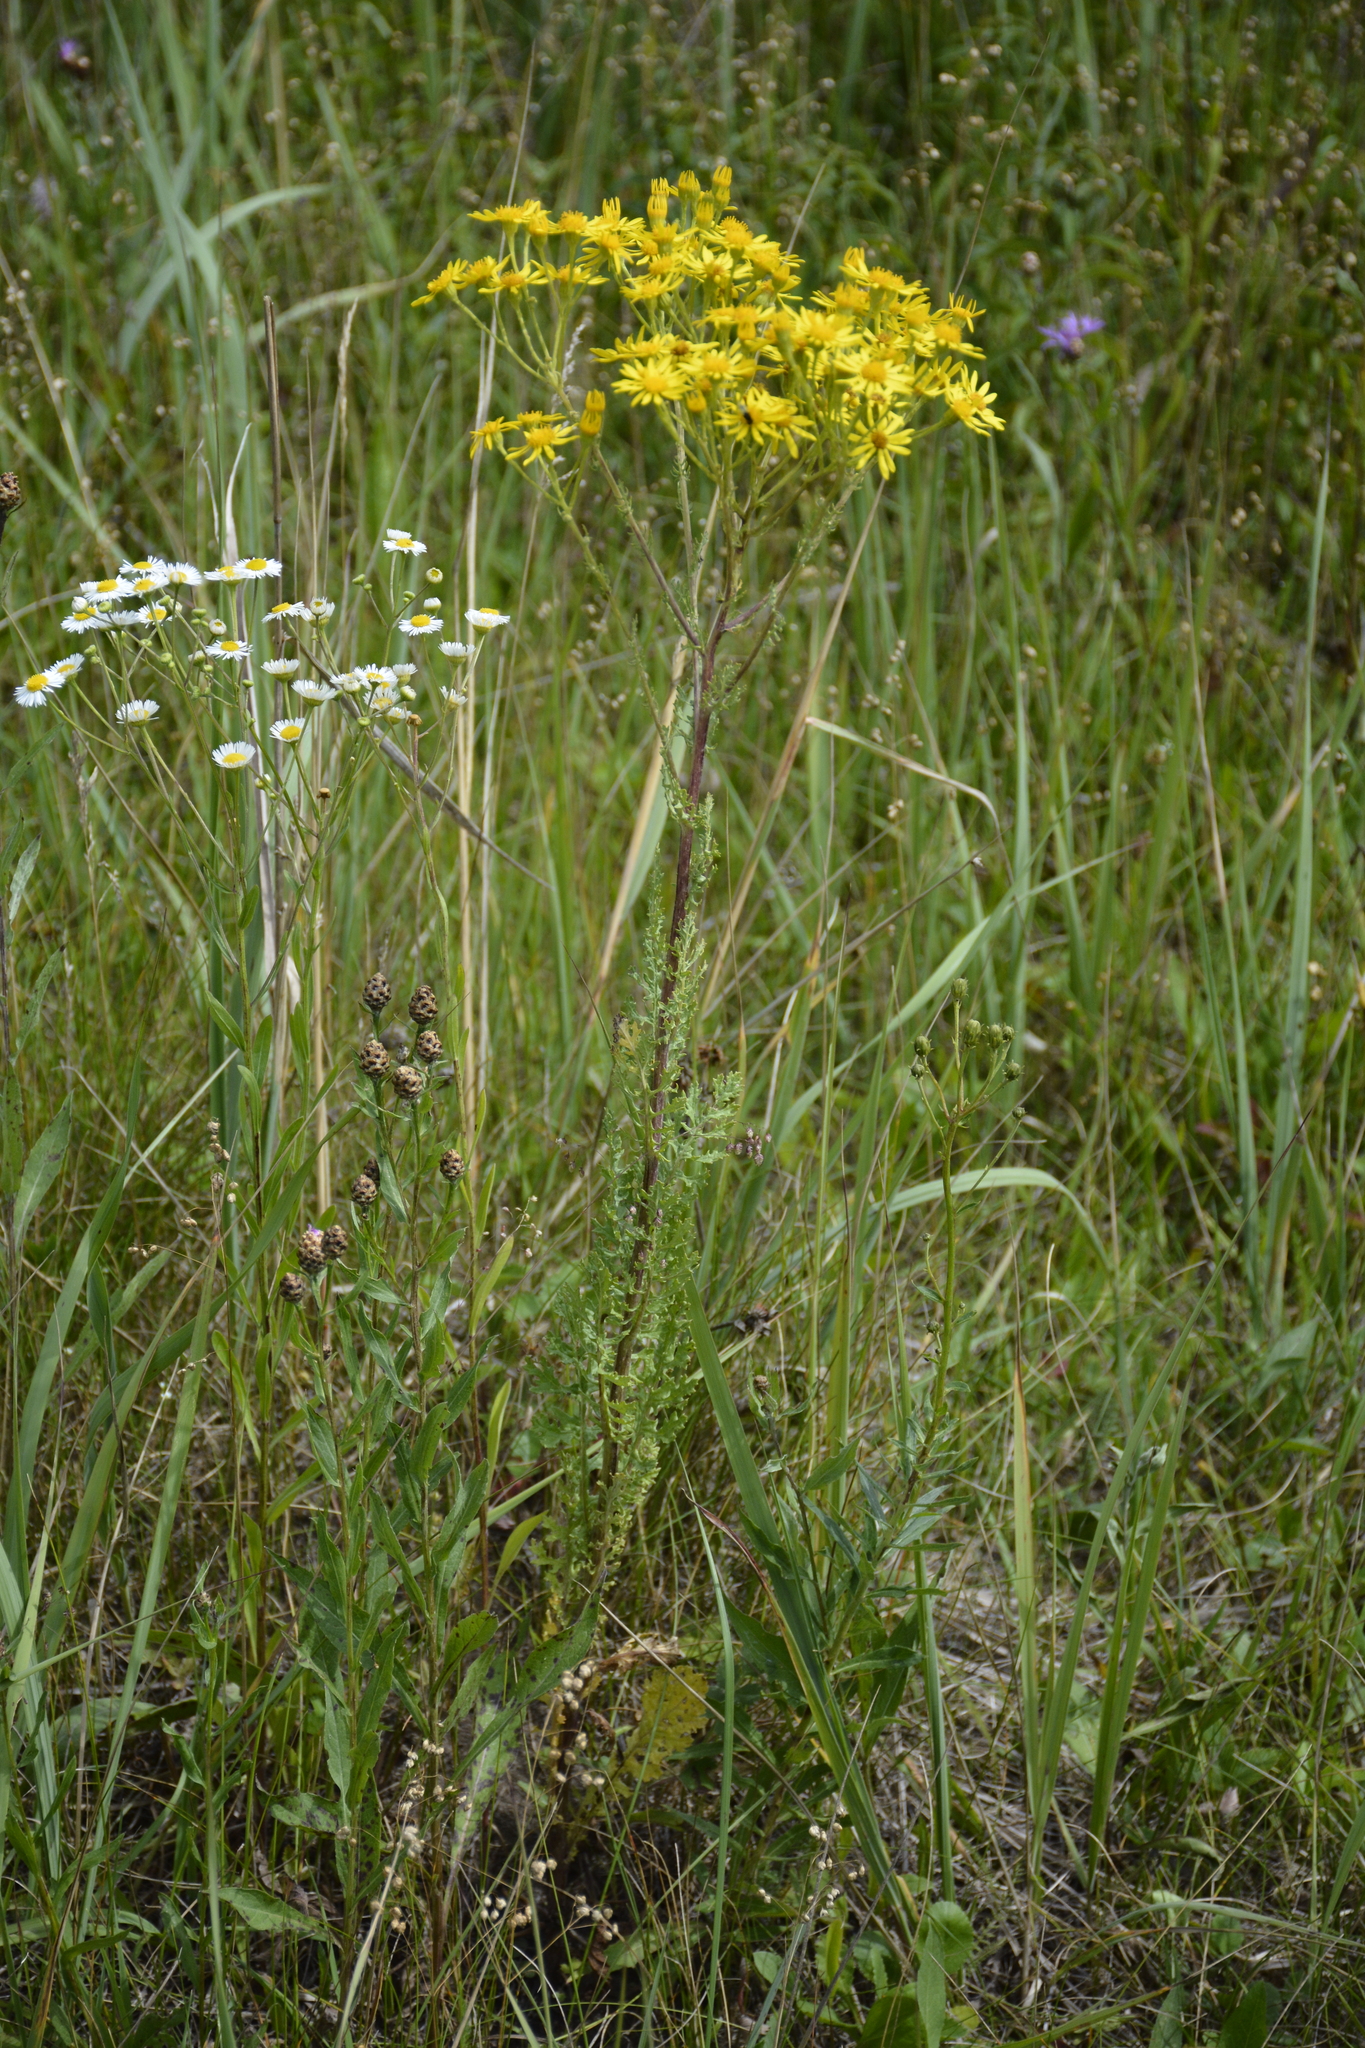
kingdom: Plantae
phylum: Tracheophyta
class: Magnoliopsida
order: Asterales
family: Asteraceae
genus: Jacobaea
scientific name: Jacobaea vulgaris
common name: Stinking willie
